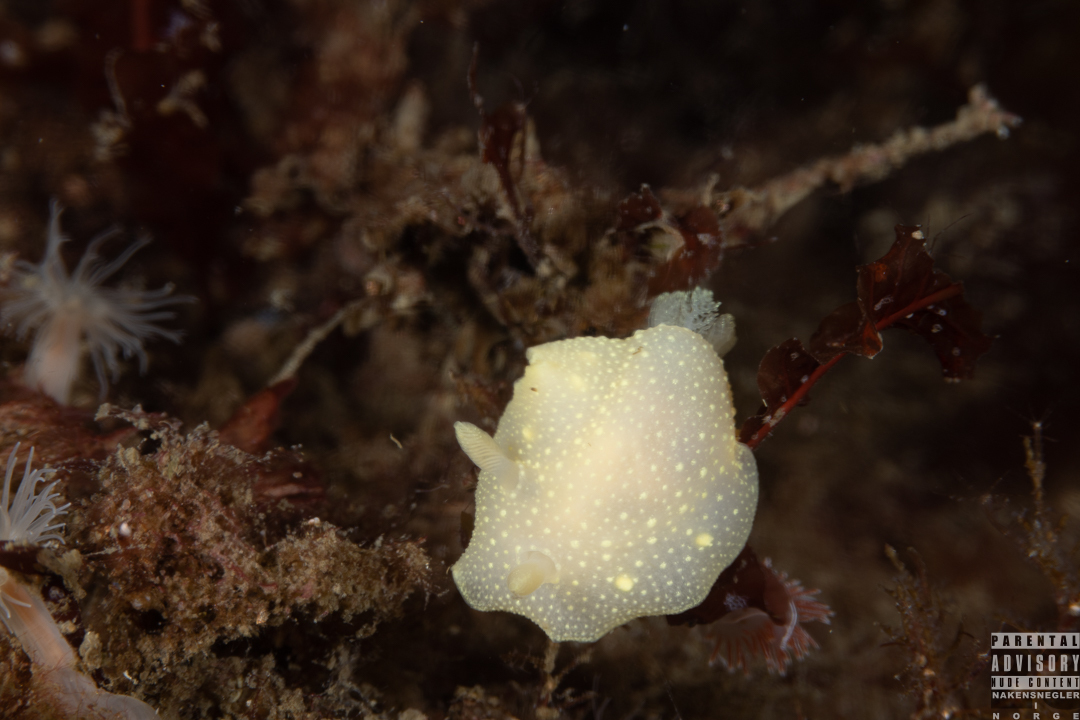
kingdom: Animalia
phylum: Mollusca
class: Gastropoda
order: Nudibranchia
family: Cadlinidae
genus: Cadlina
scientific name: Cadlina laevis
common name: White atlantic cadlina
